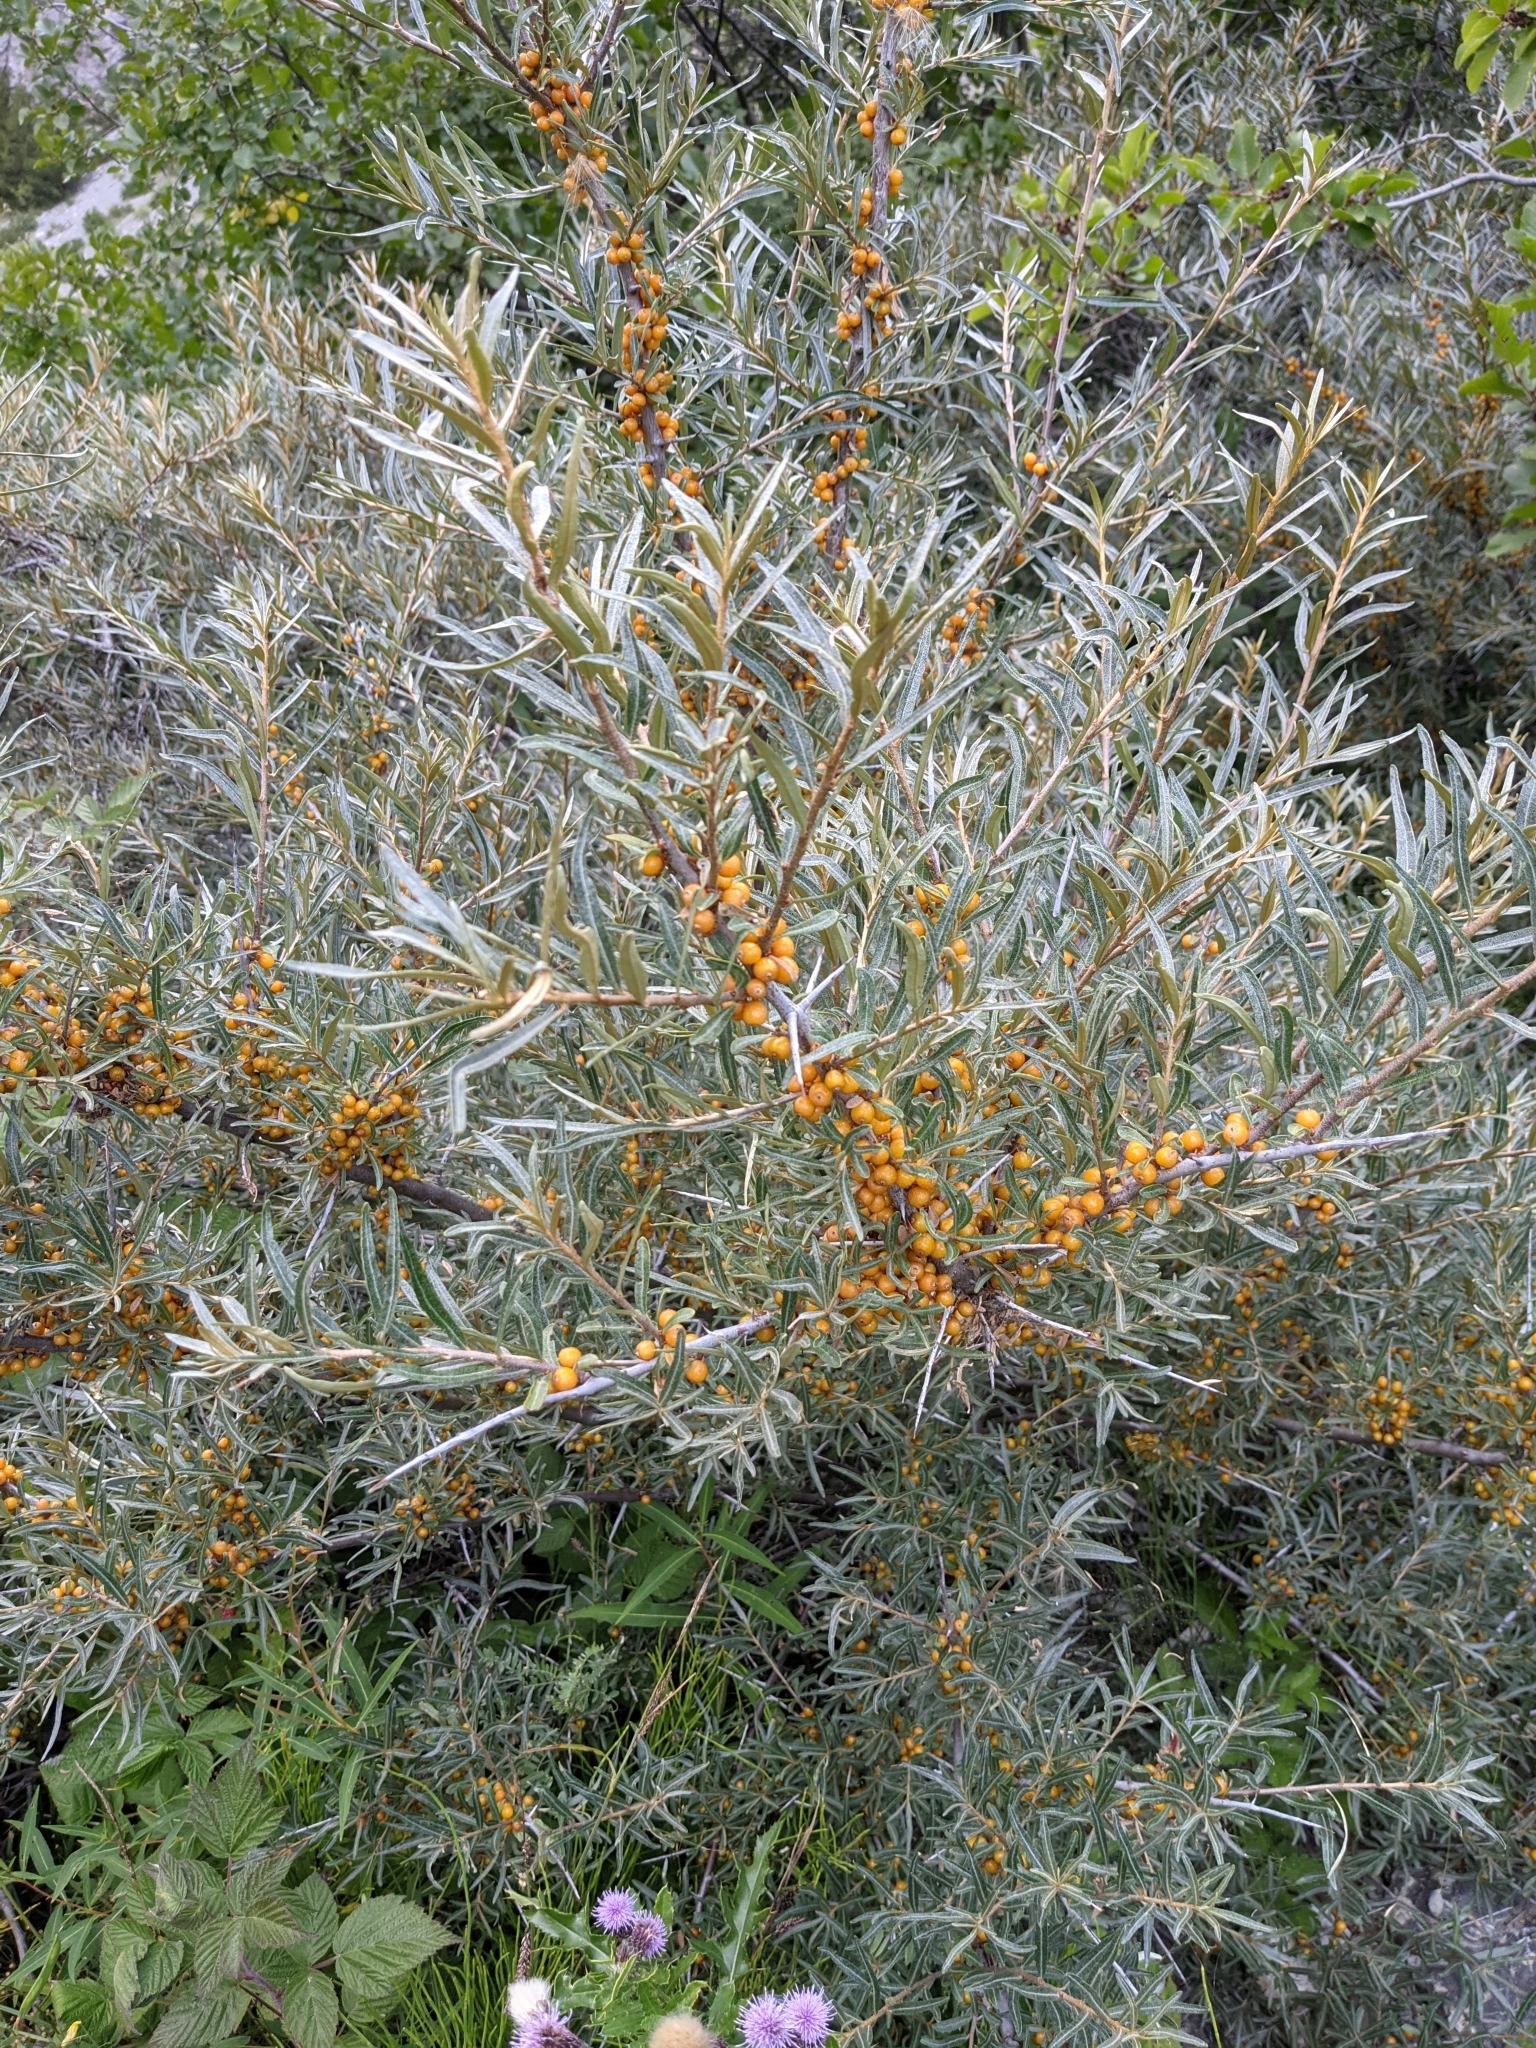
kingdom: Plantae
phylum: Tracheophyta
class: Magnoliopsida
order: Rosales
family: Elaeagnaceae
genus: Hippophae
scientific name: Hippophae rhamnoides
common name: Sea-buckthorn
